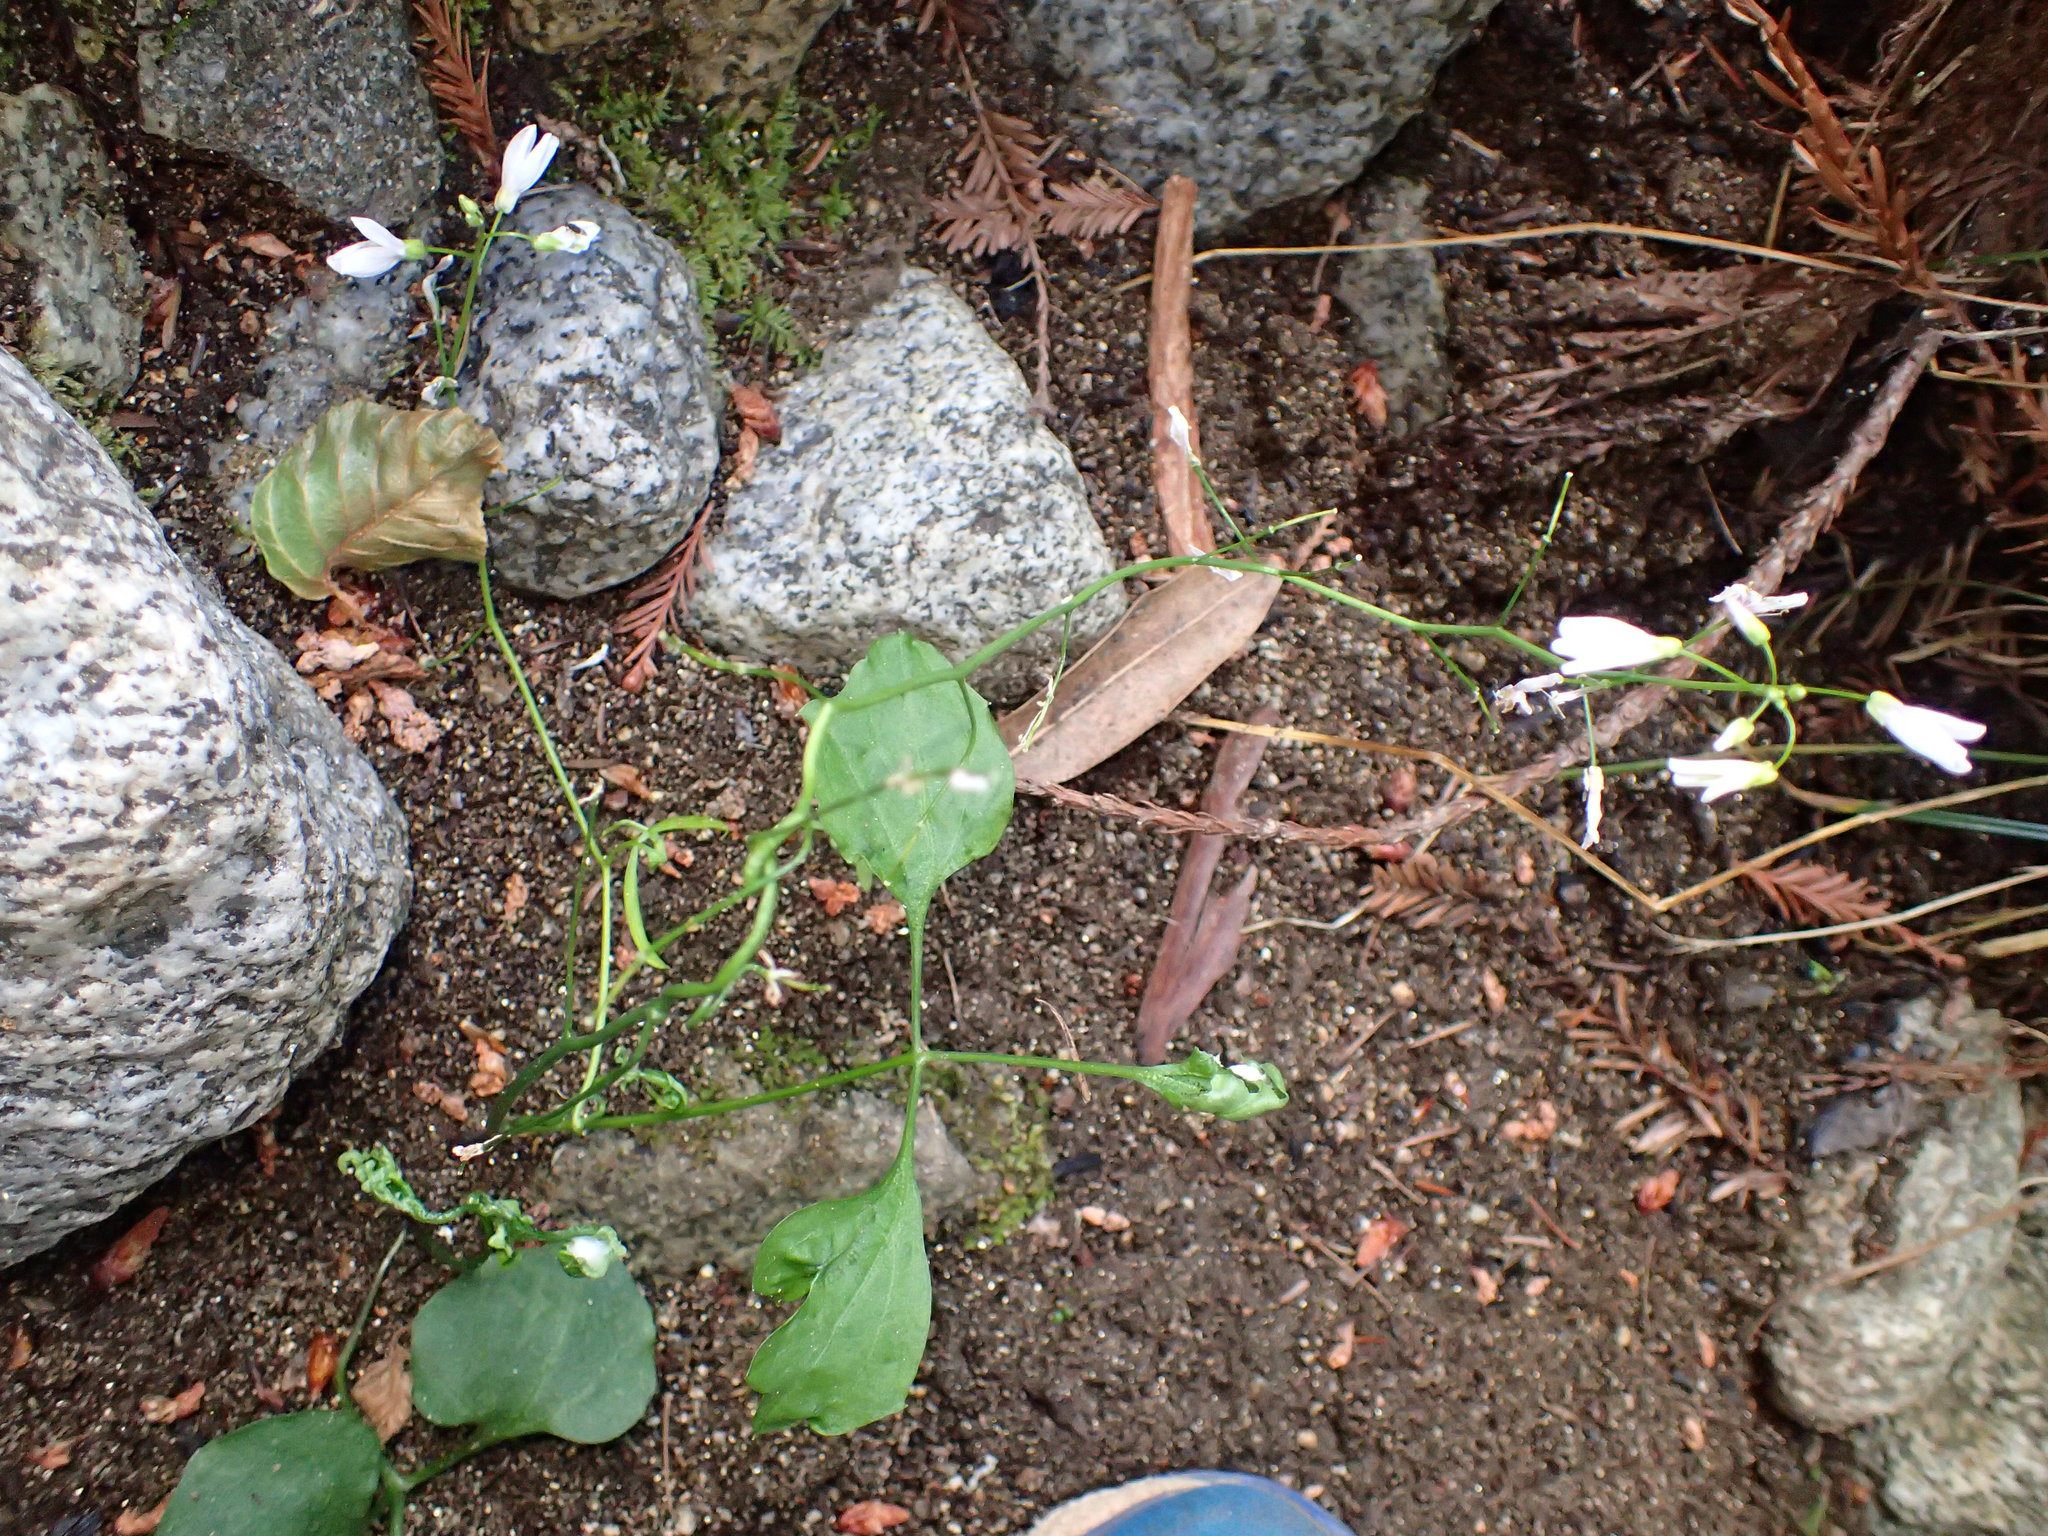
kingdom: Plantae
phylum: Tracheophyta
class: Magnoliopsida
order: Brassicales
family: Brassicaceae
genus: Cardamine
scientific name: Cardamine californica
